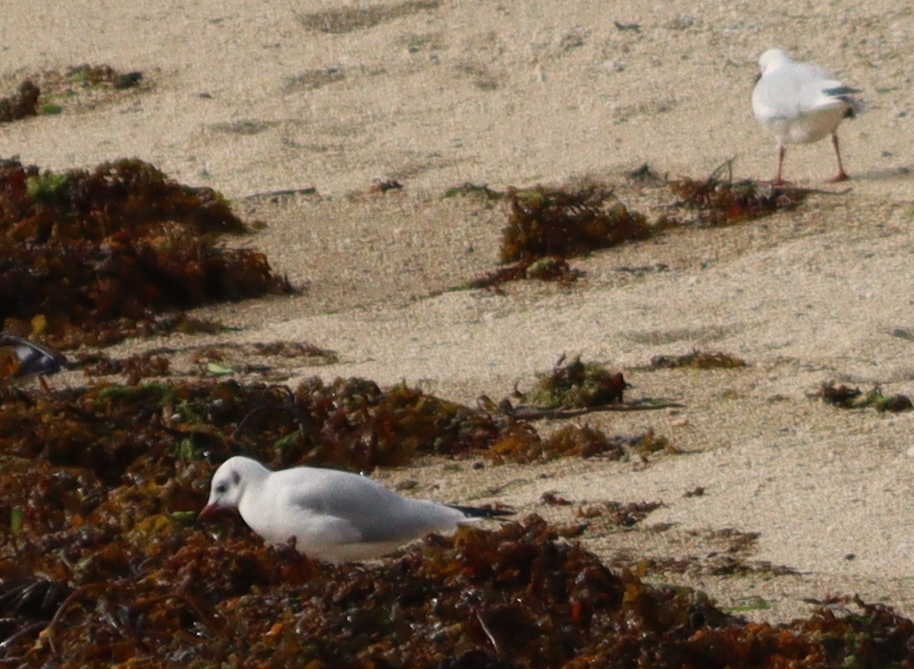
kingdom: Animalia
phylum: Chordata
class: Aves
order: Charadriiformes
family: Laridae
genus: Chroicocephalus
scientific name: Chroicocephalus ridibundus
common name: Black-headed gull
